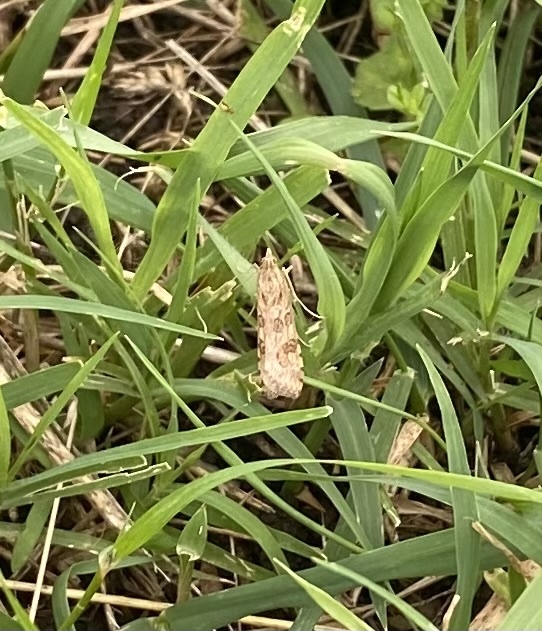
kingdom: Animalia
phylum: Arthropoda
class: Insecta
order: Lepidoptera
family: Crambidae
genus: Nomophila
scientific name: Nomophila noctuella
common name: Rush veneer
